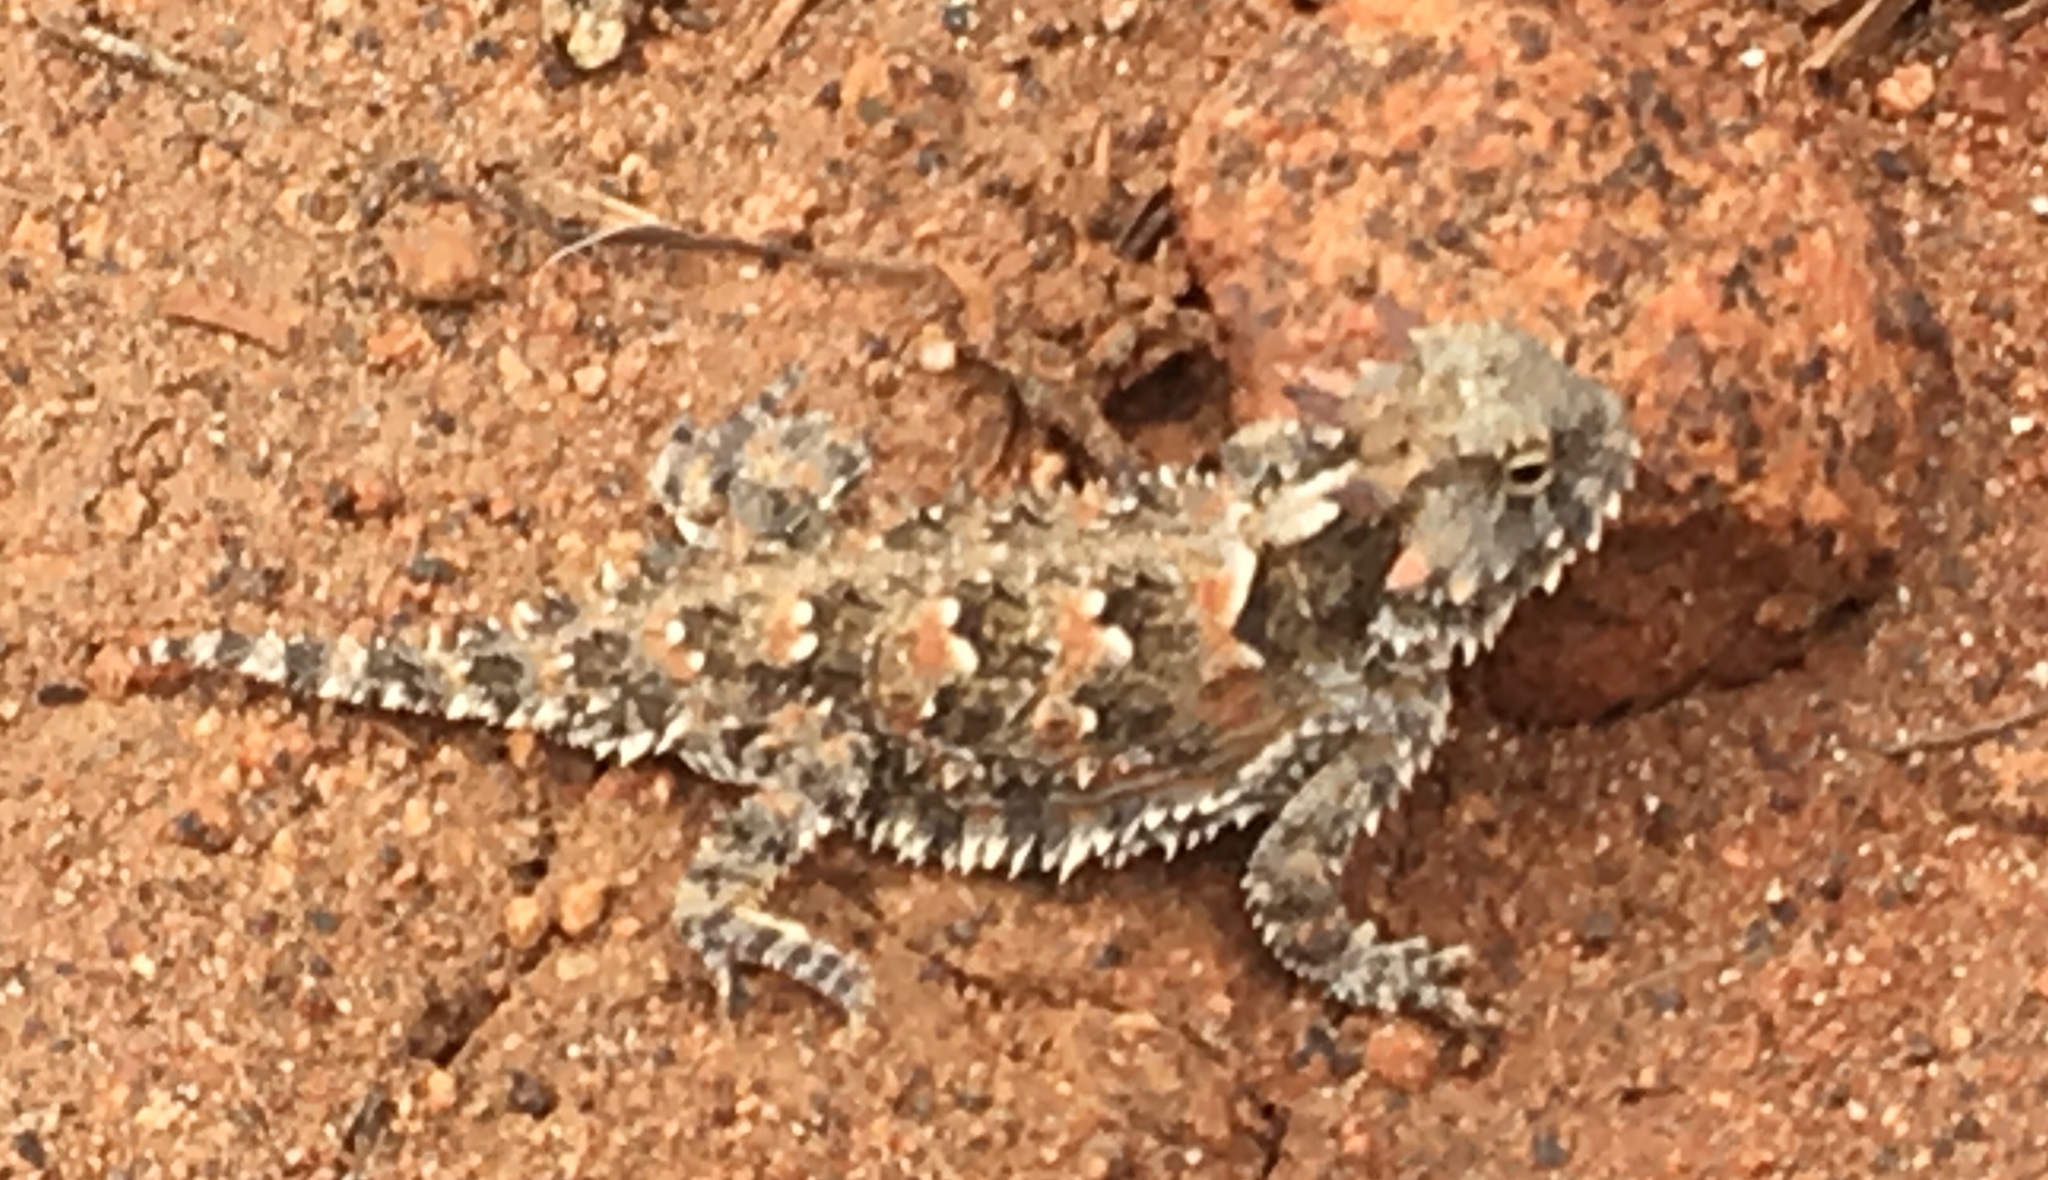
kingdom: Animalia
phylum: Chordata
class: Squamata
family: Phrynosomatidae
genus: Phrynosoma
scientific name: Phrynosoma blainvillii
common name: San diego horned lizard
